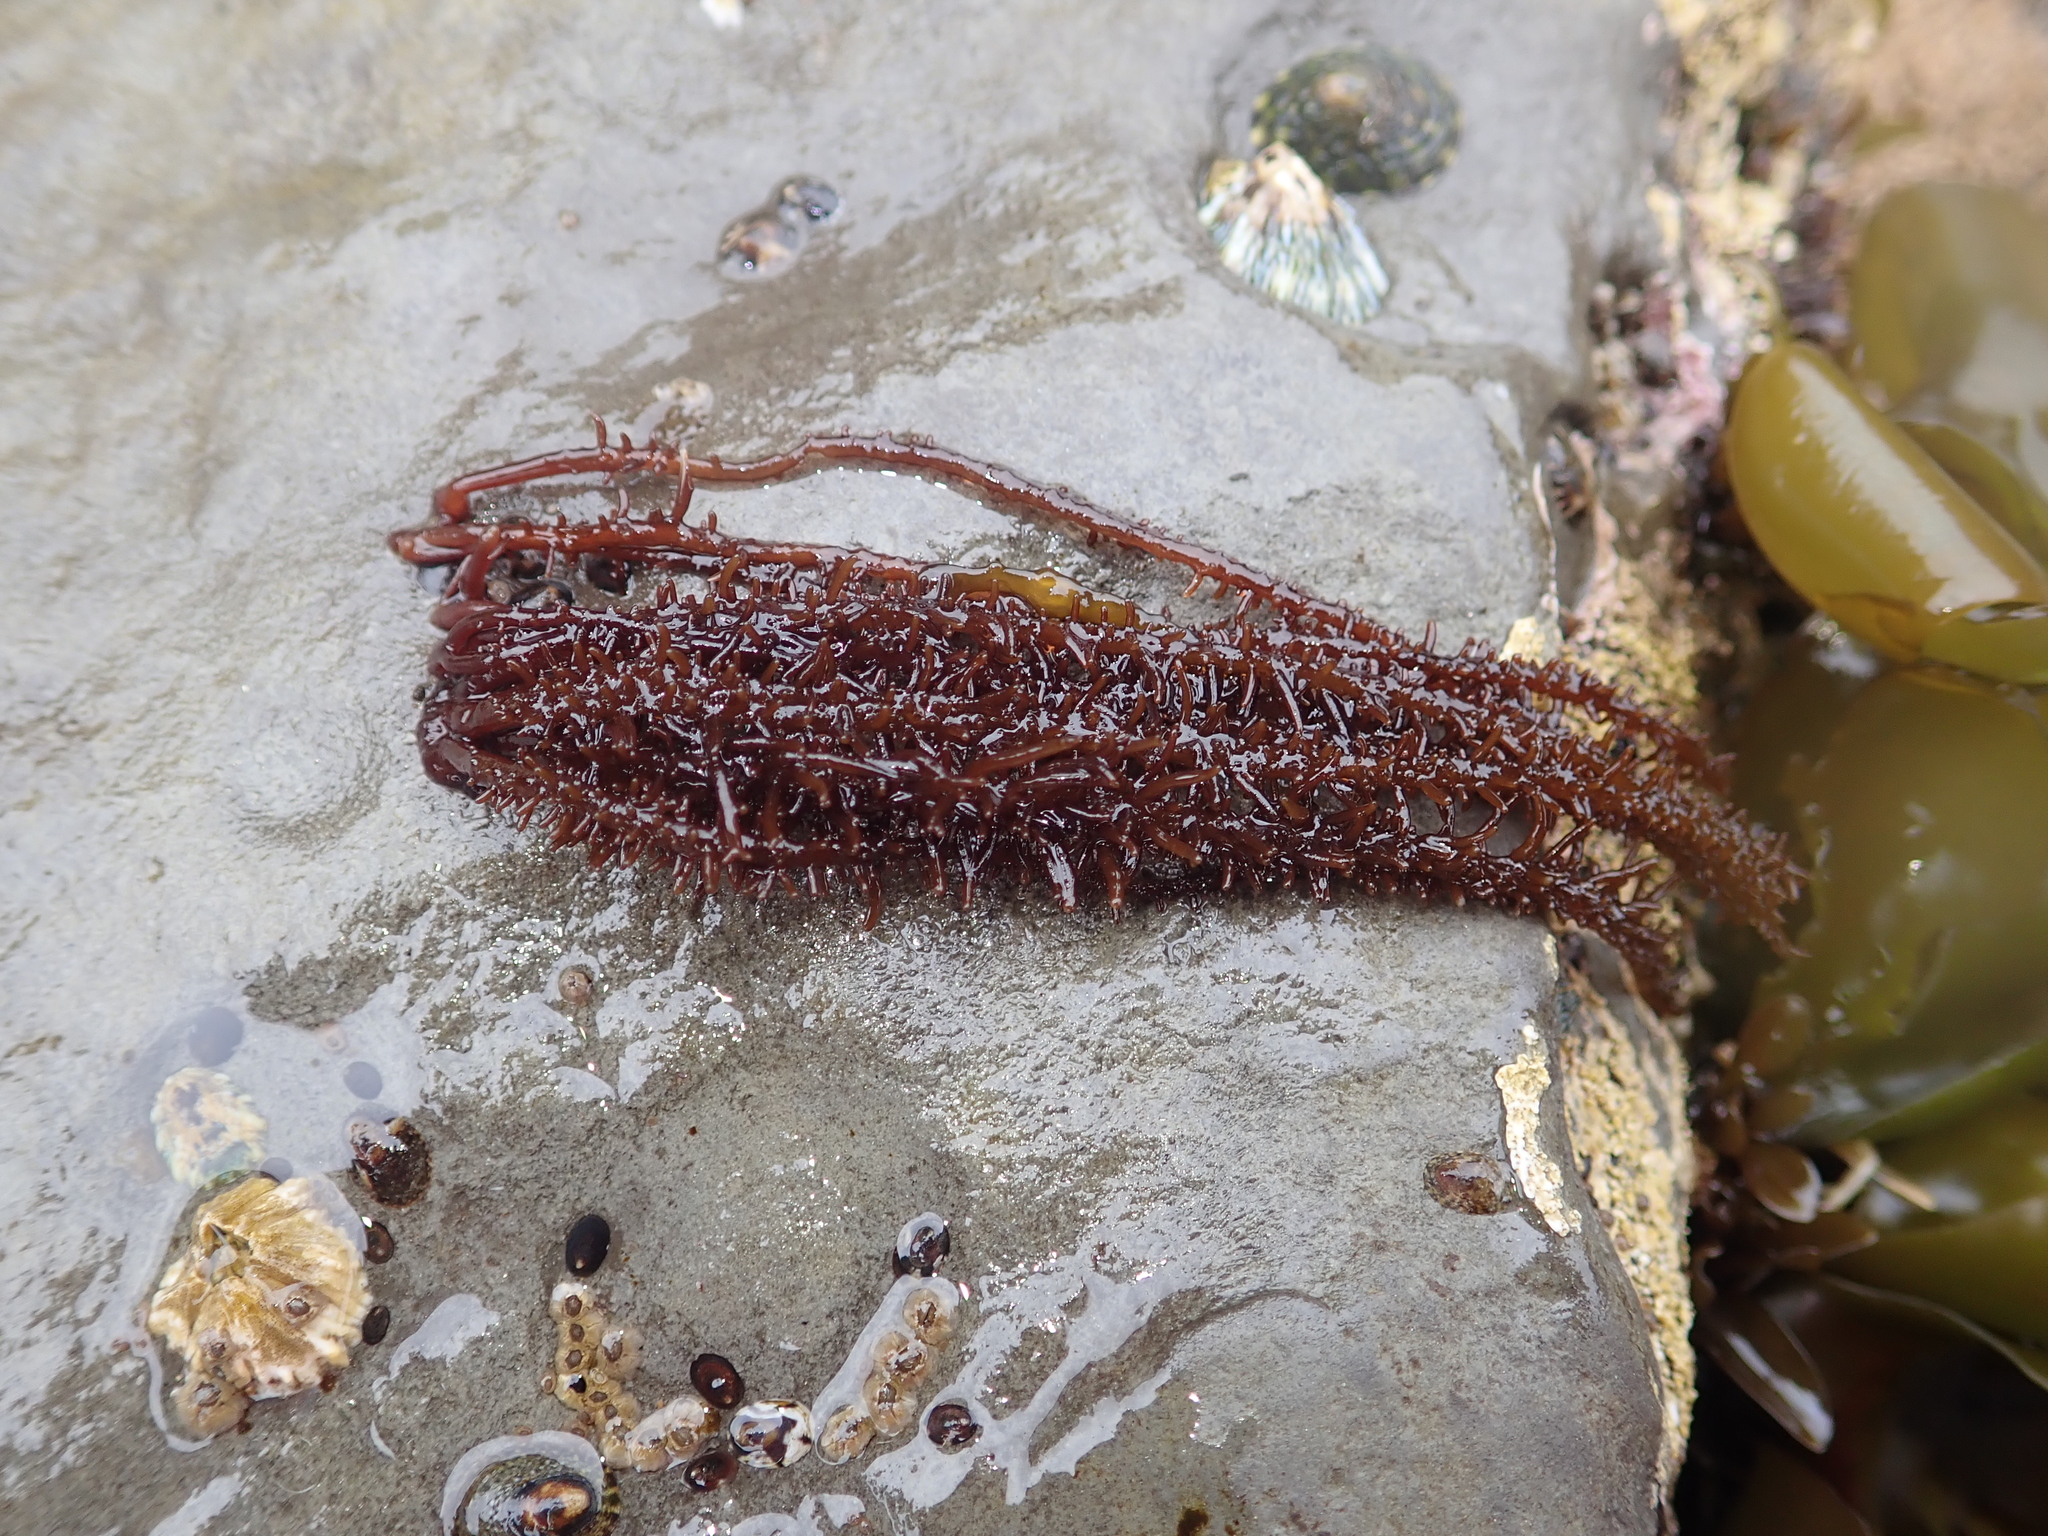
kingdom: Plantae
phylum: Rhodophyta
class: Florideophyceae
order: Nemaliales
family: Liagoraceae
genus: Cumagloia
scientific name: Cumagloia andersonii
